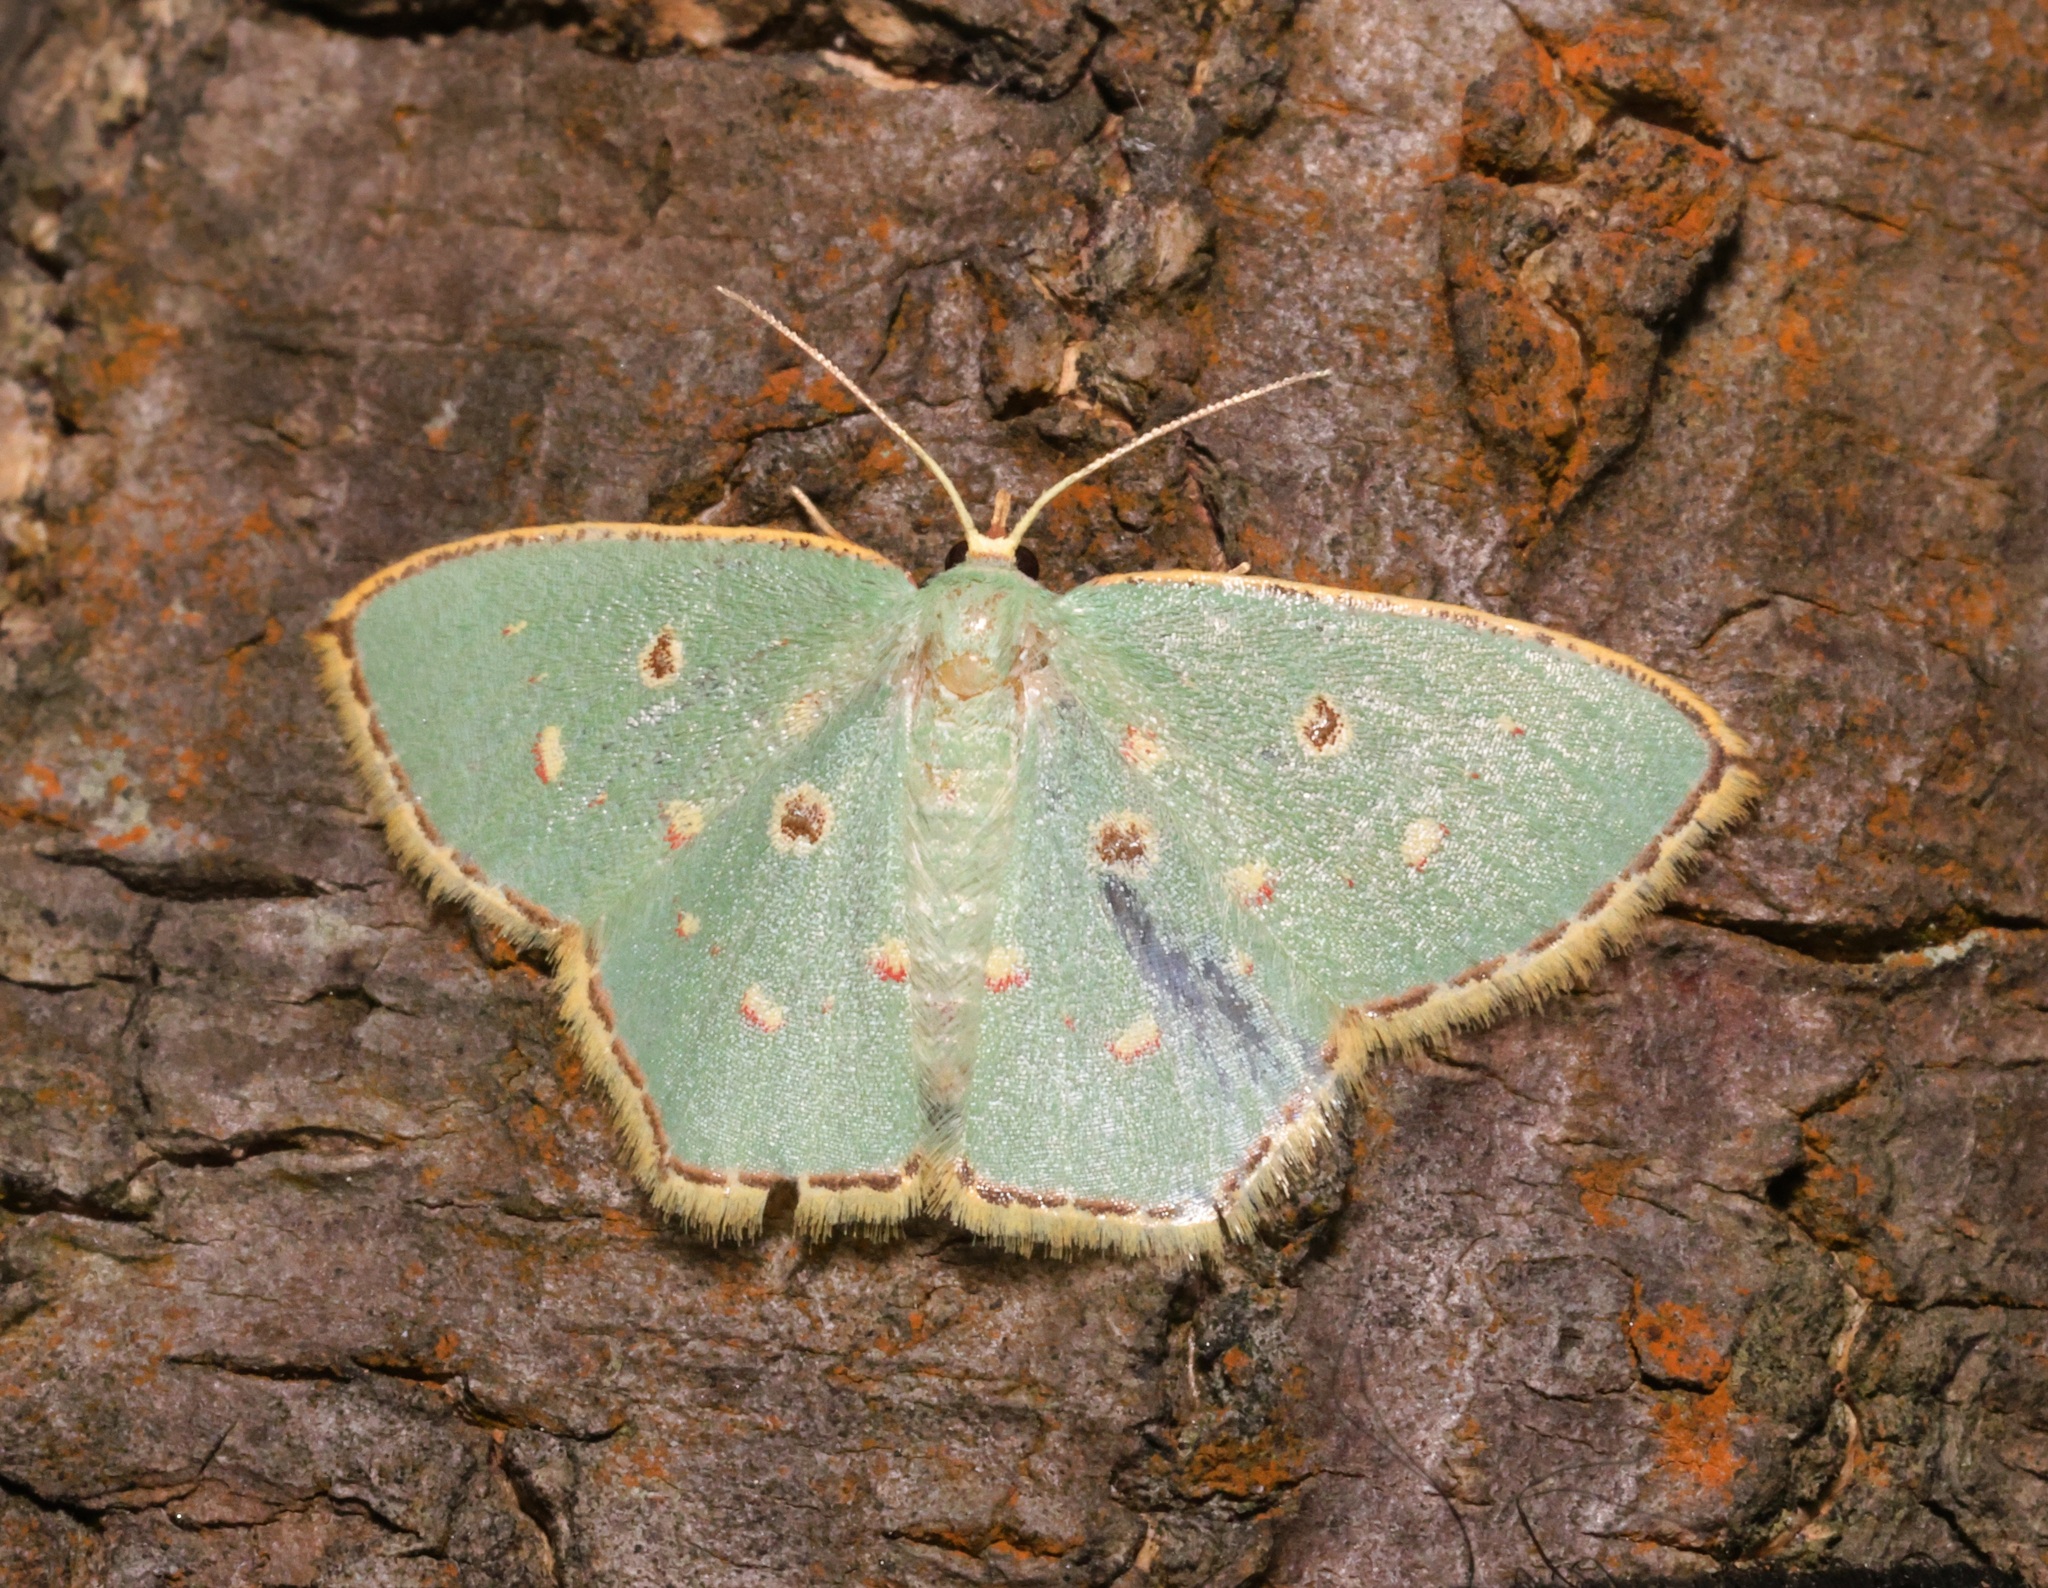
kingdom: Animalia
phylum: Arthropoda
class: Insecta
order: Lepidoptera
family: Geometridae
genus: Comostola
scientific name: Comostola meritaria
